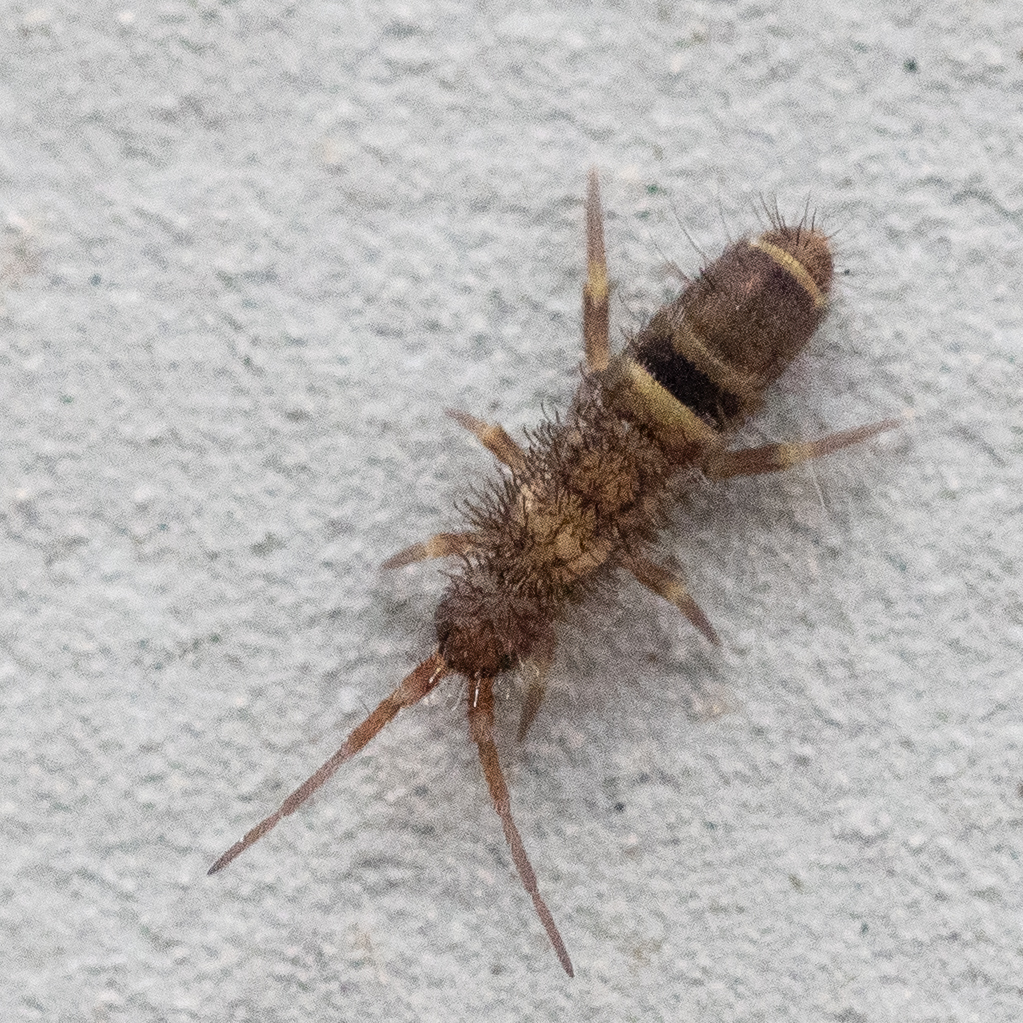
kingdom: Animalia
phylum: Arthropoda
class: Collembola
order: Entomobryomorpha
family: Orchesellidae
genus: Orchesella
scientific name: Orchesella cincta
